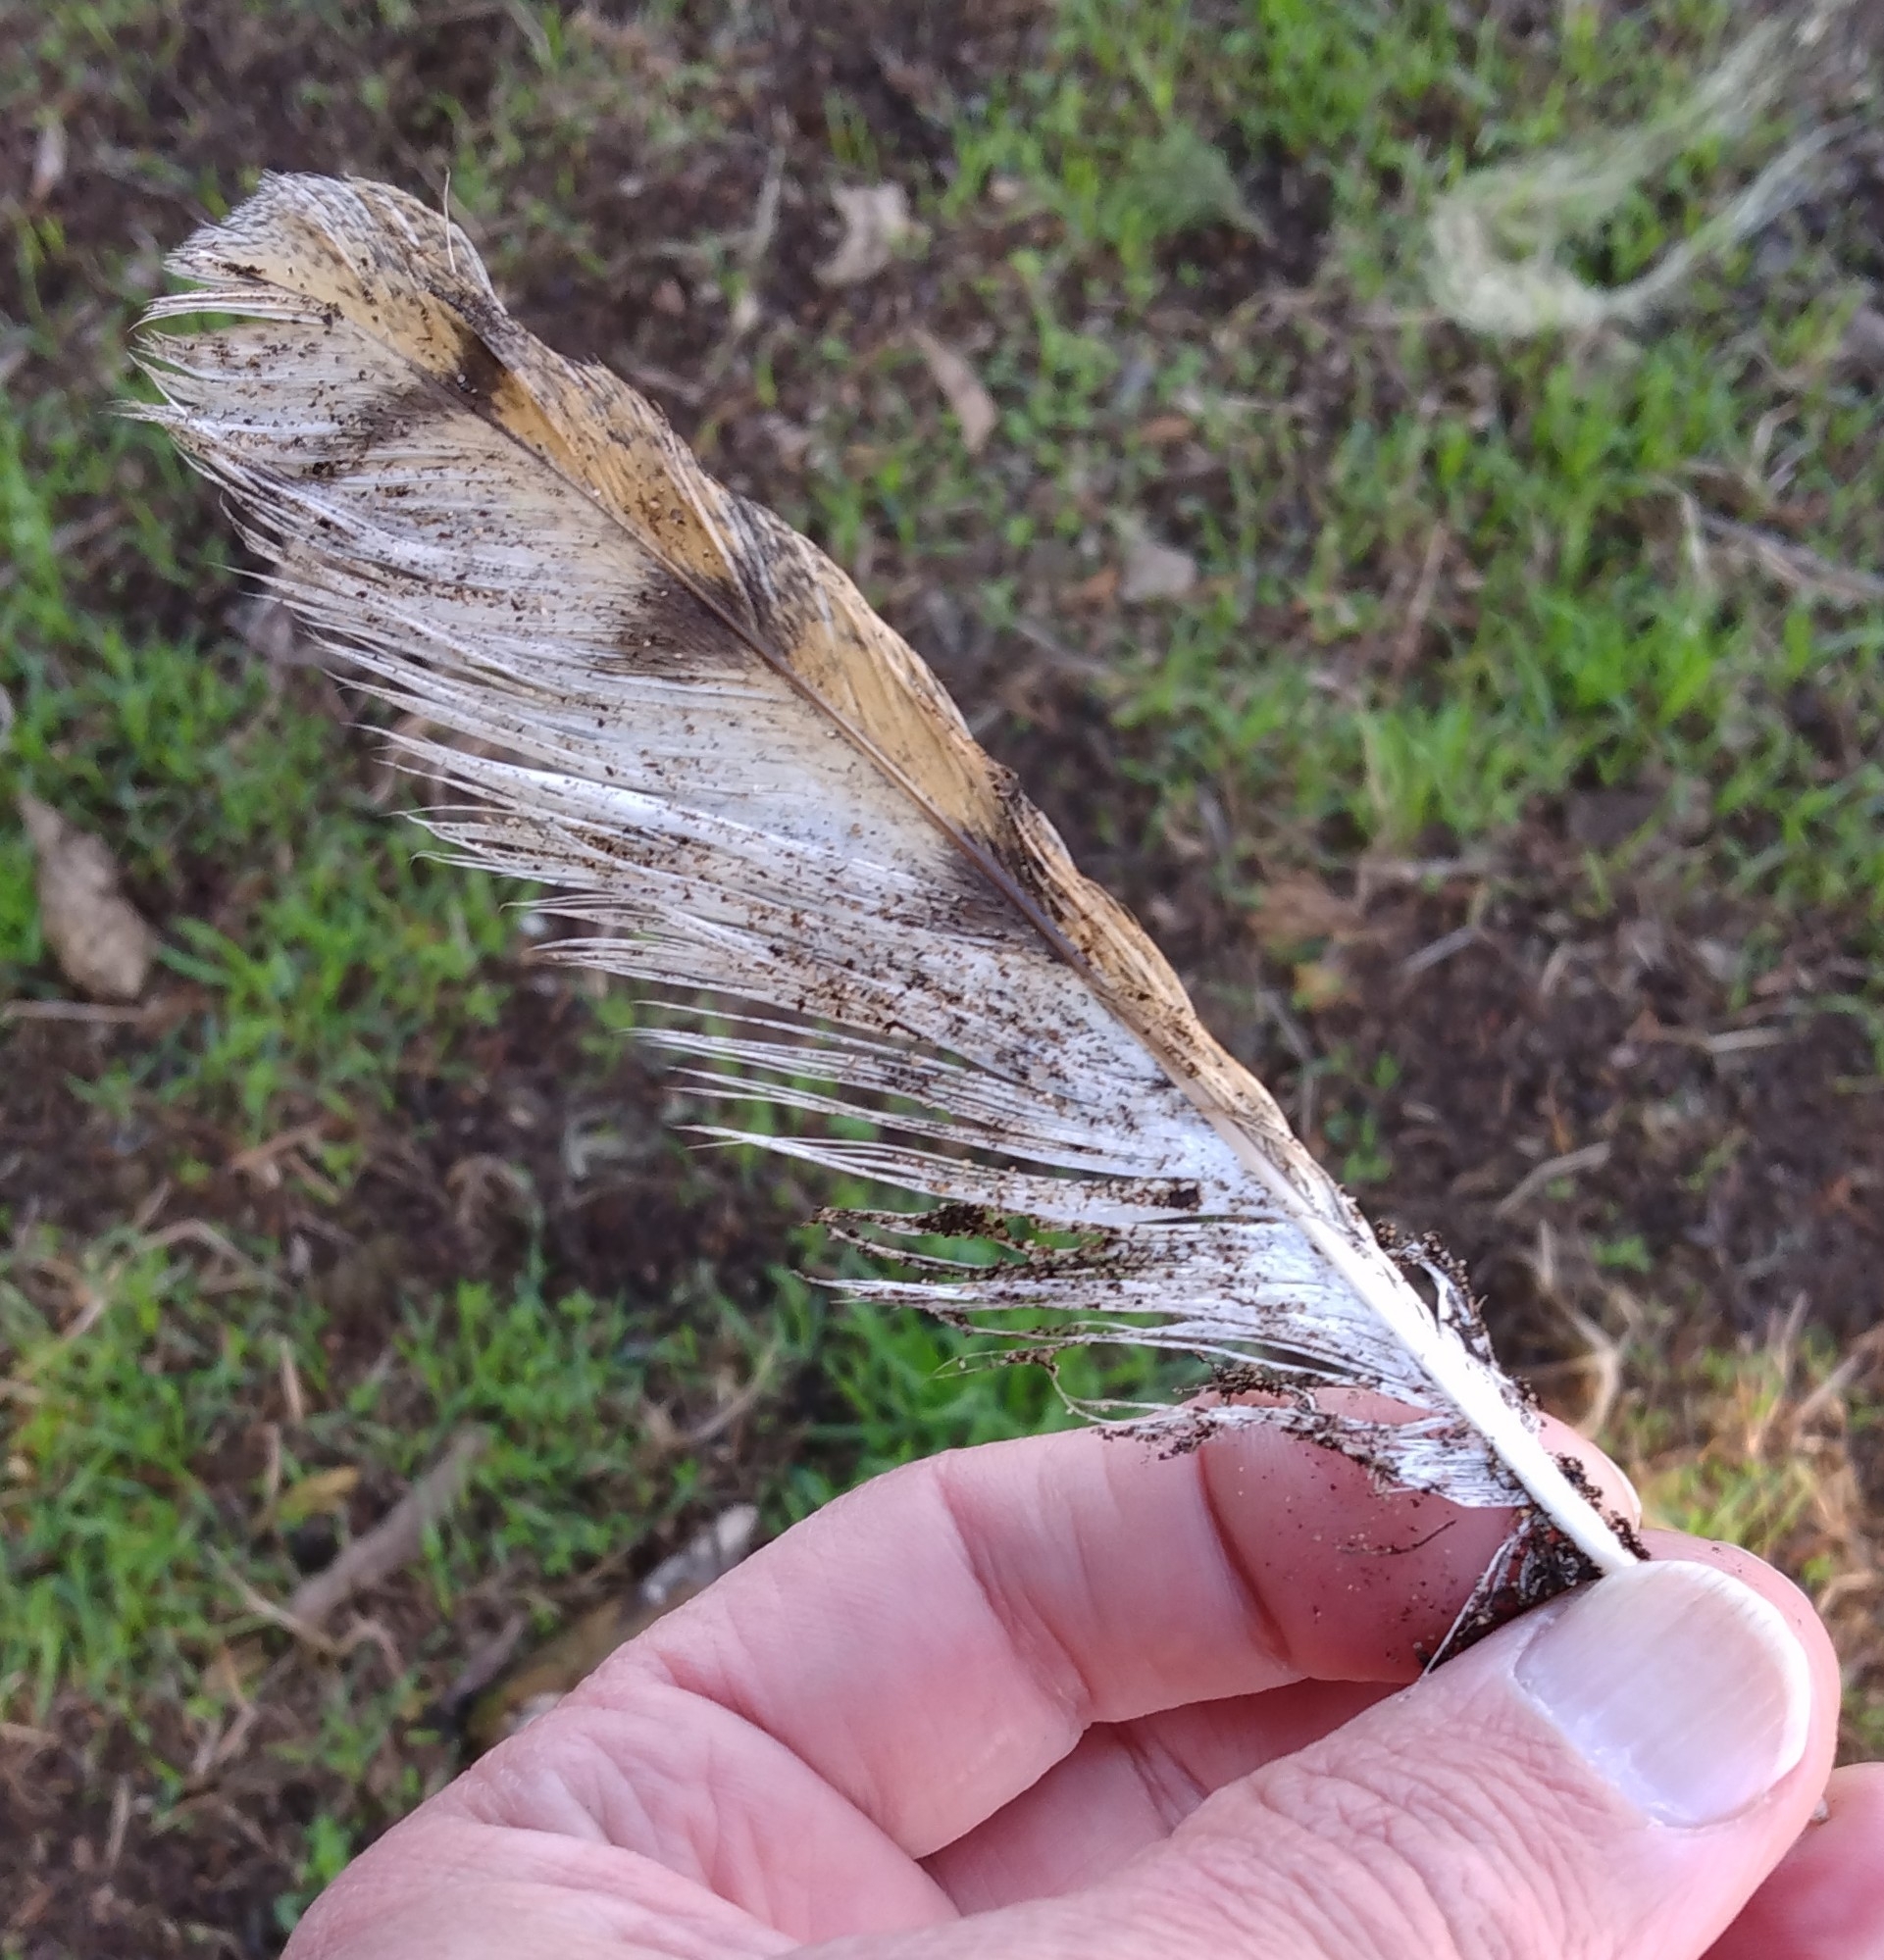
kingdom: Animalia
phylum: Chordata
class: Aves
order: Strigiformes
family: Tytonidae
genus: Tyto
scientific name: Tyto furcata
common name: American barn owl
